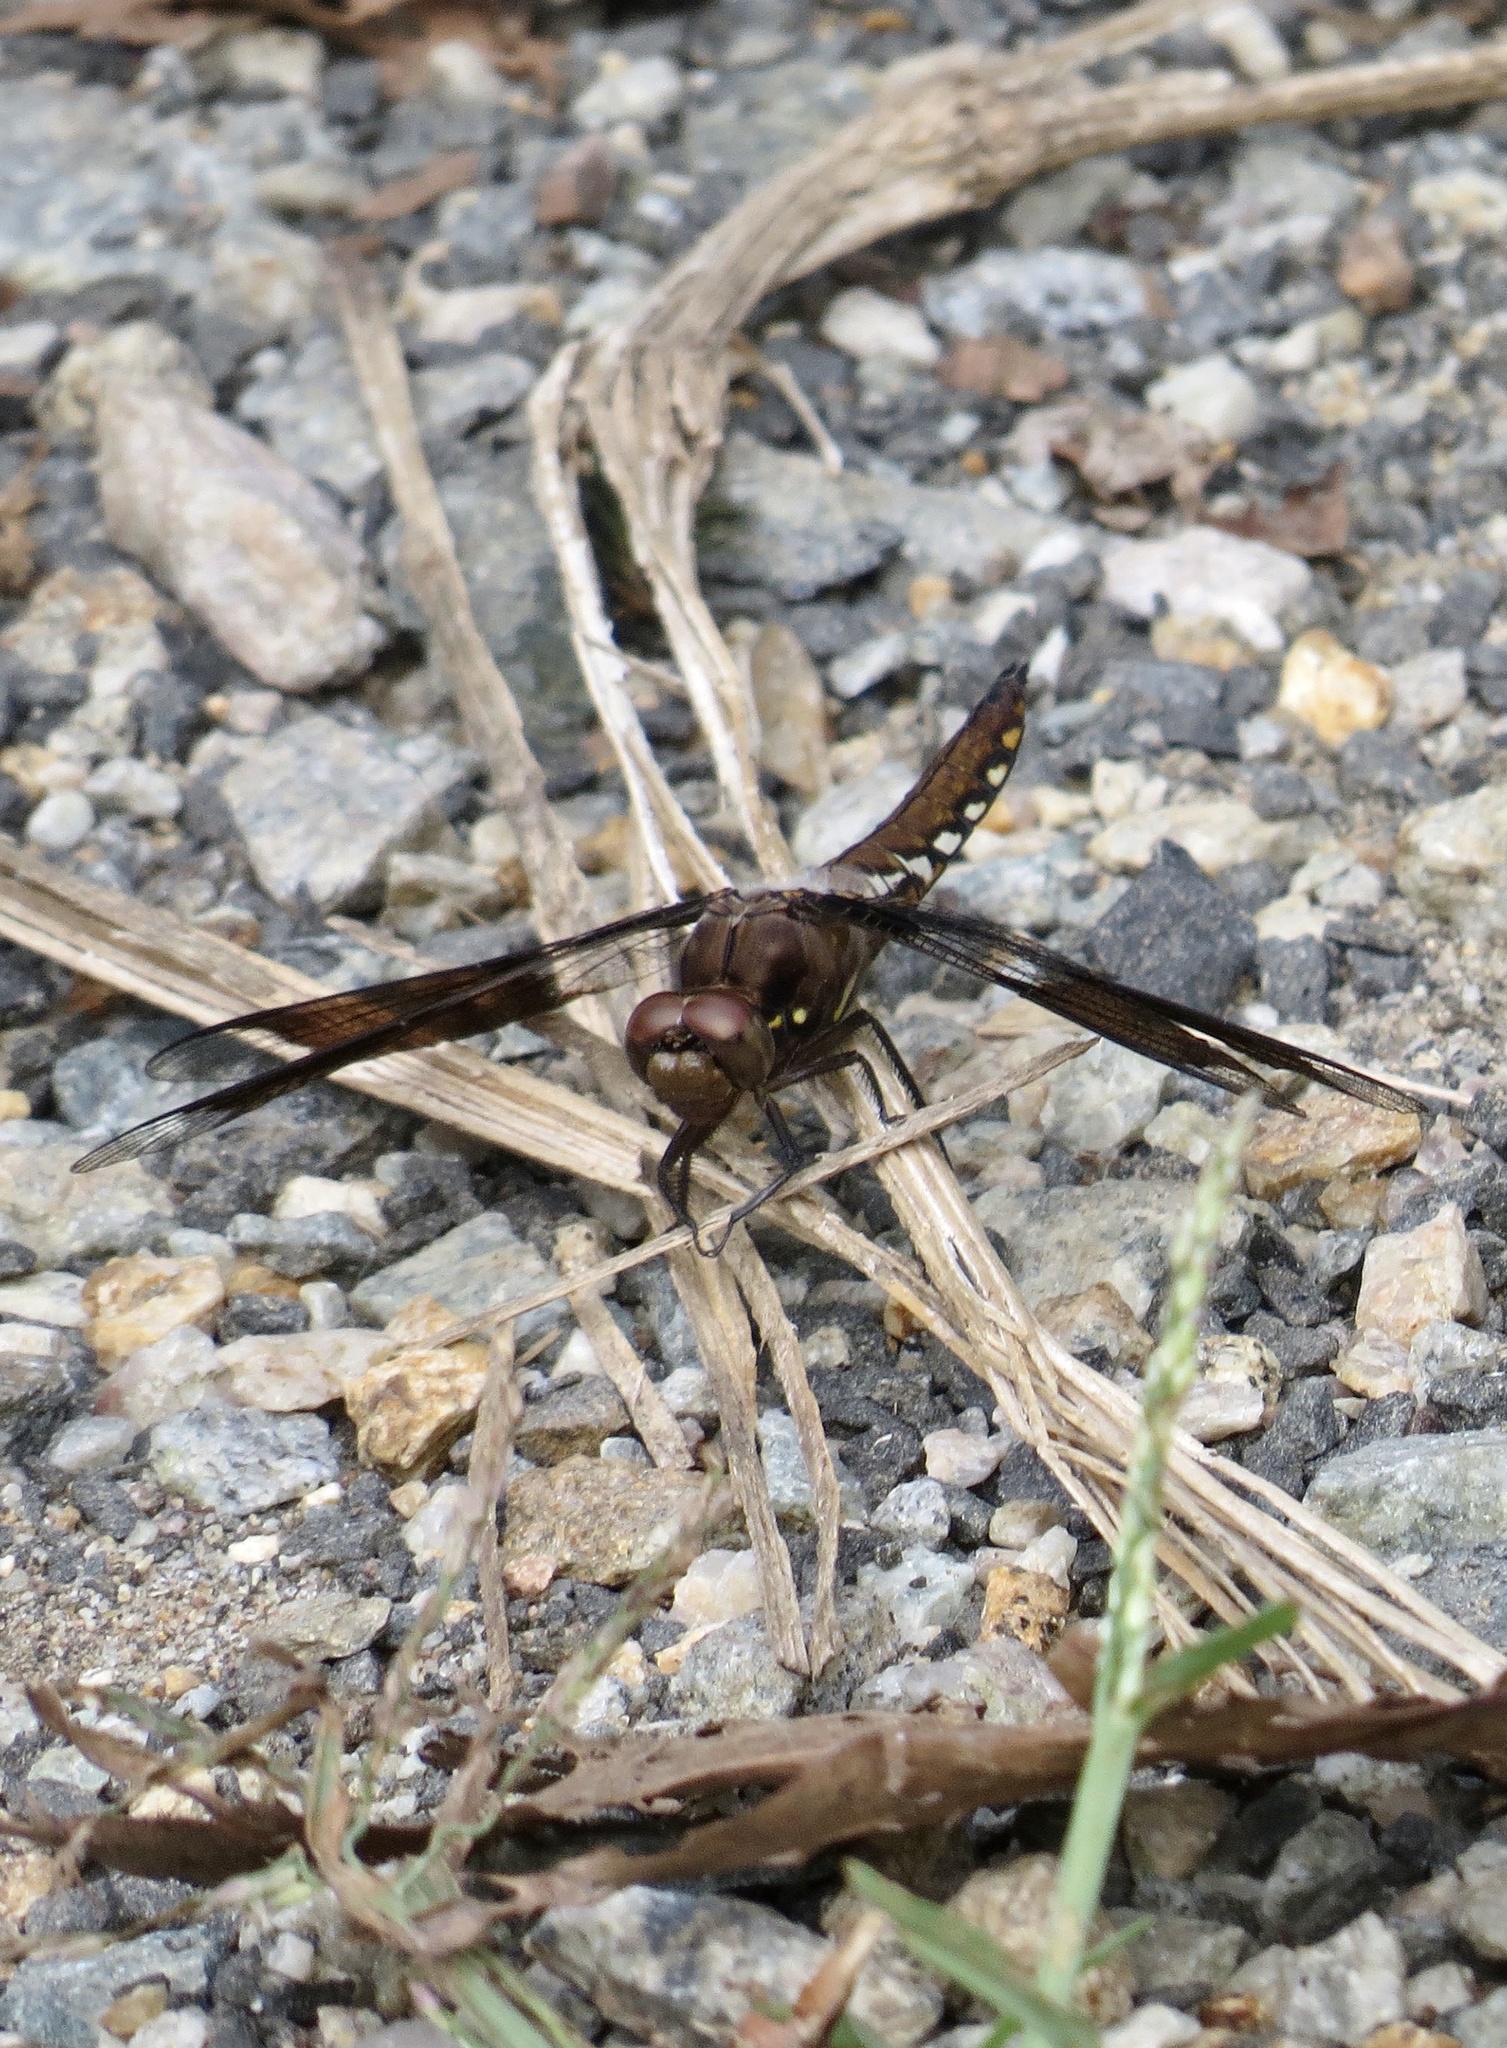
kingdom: Animalia
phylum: Arthropoda
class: Insecta
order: Odonata
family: Libellulidae
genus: Plathemis
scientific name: Plathemis lydia
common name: Common whitetail
